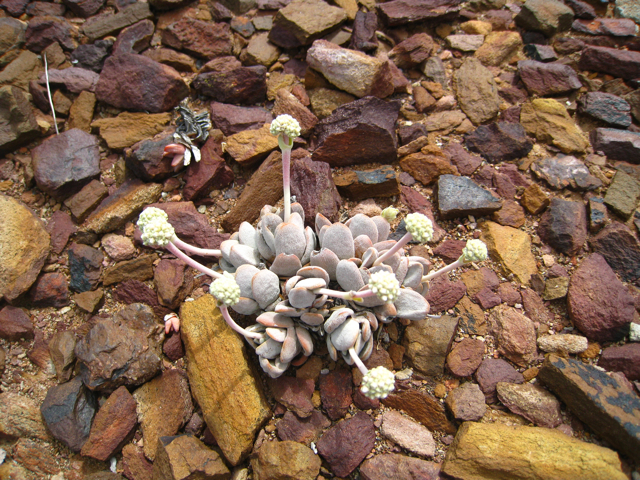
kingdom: Plantae
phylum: Tracheophyta
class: Magnoliopsida
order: Saxifragales
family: Crassulaceae
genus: Crassula
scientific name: Crassula tecta
